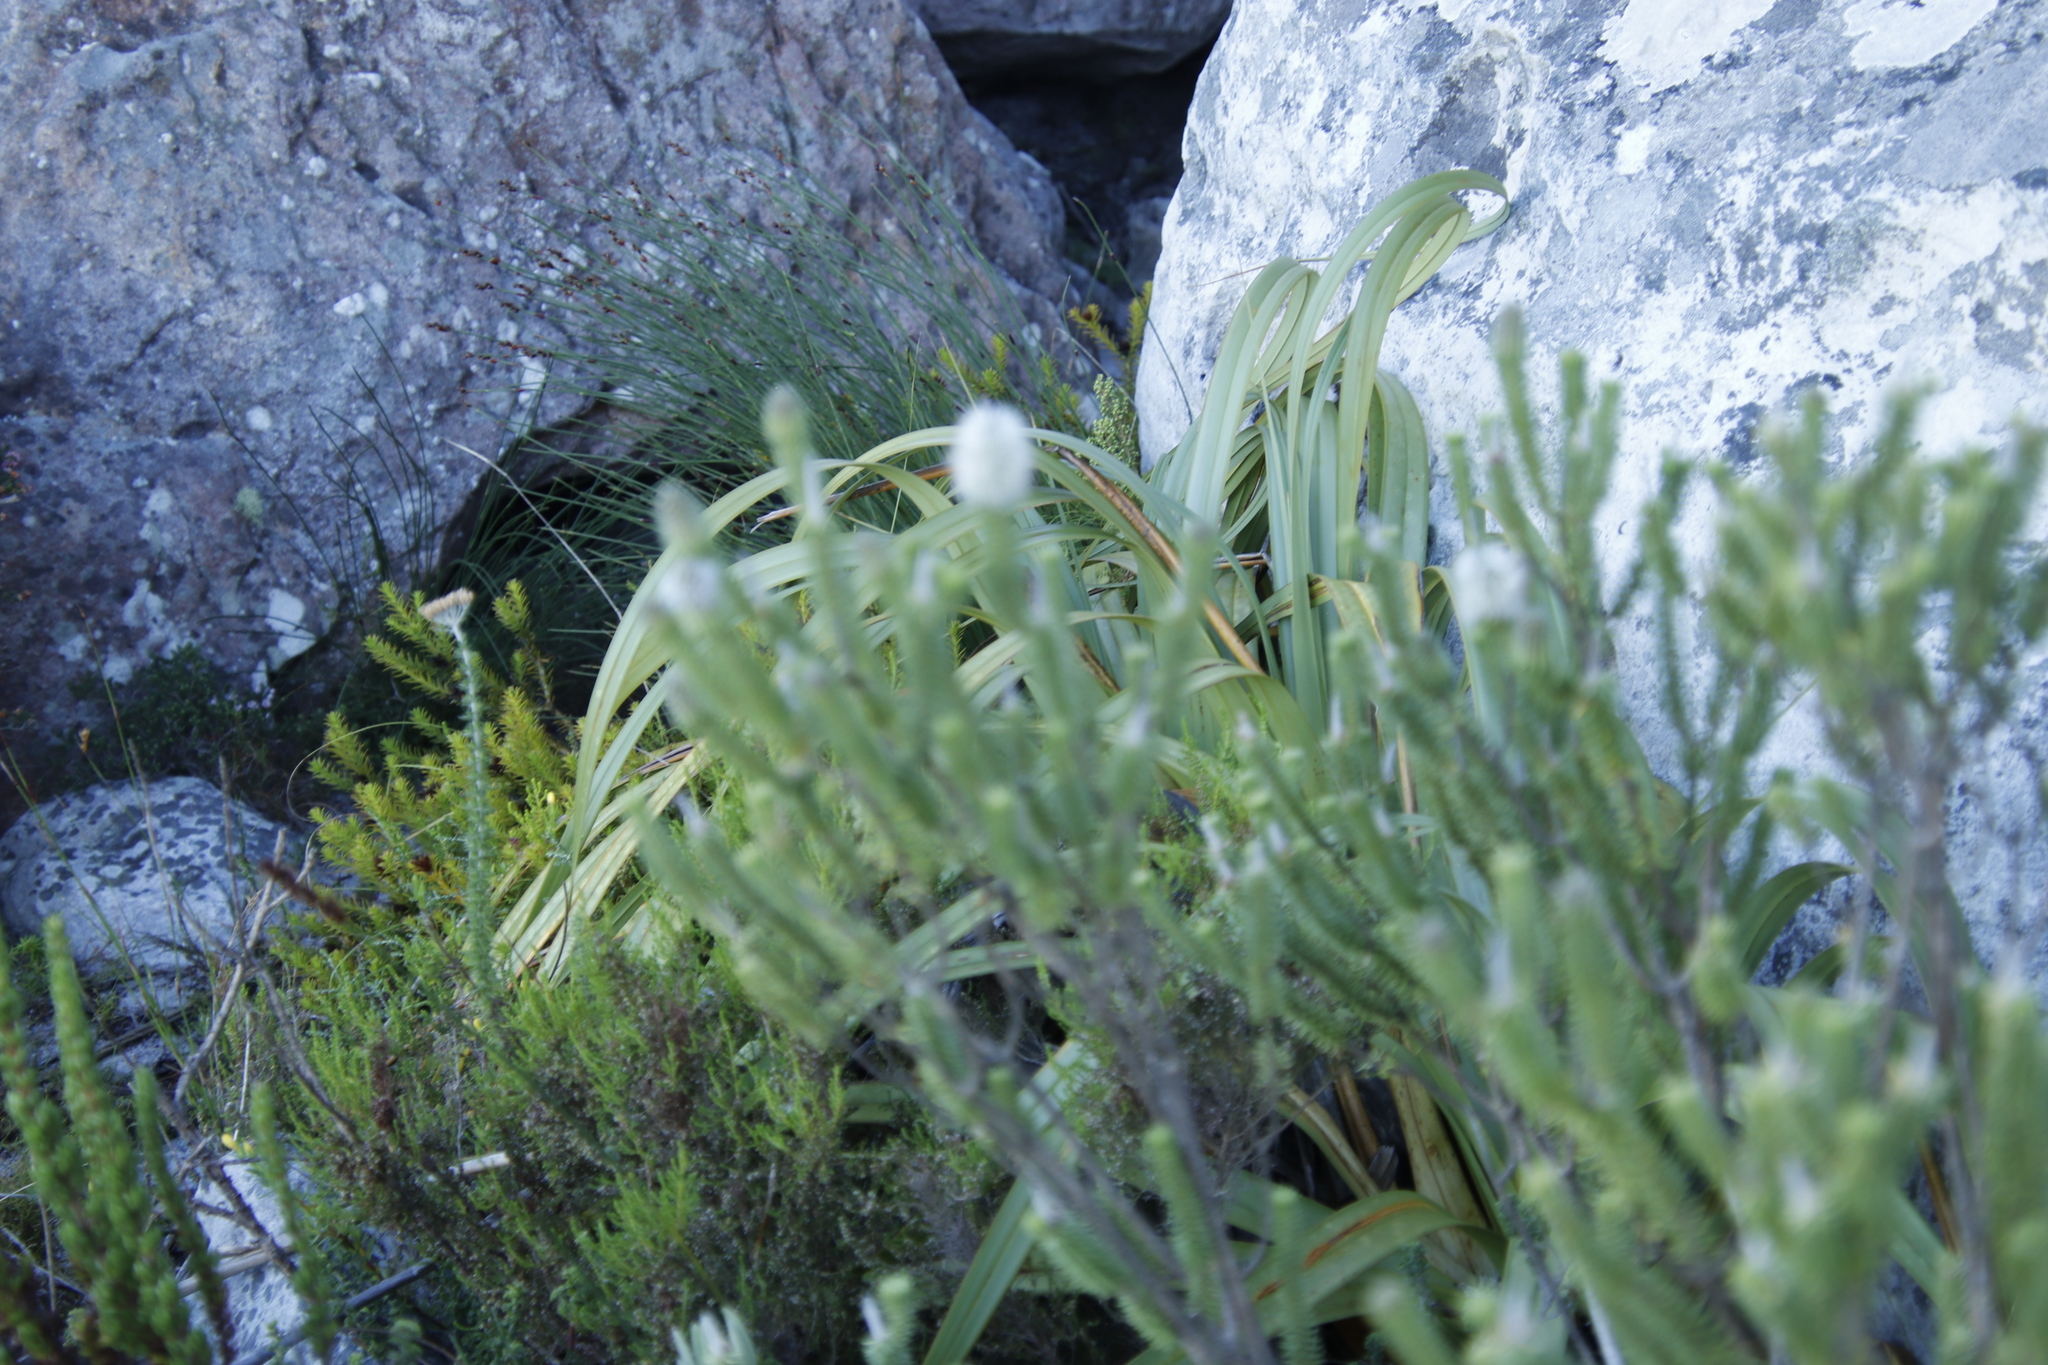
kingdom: Plantae
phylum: Tracheophyta
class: Liliopsida
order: Poales
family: Cyperaceae
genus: Tetraria
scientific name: Tetraria thermalis
